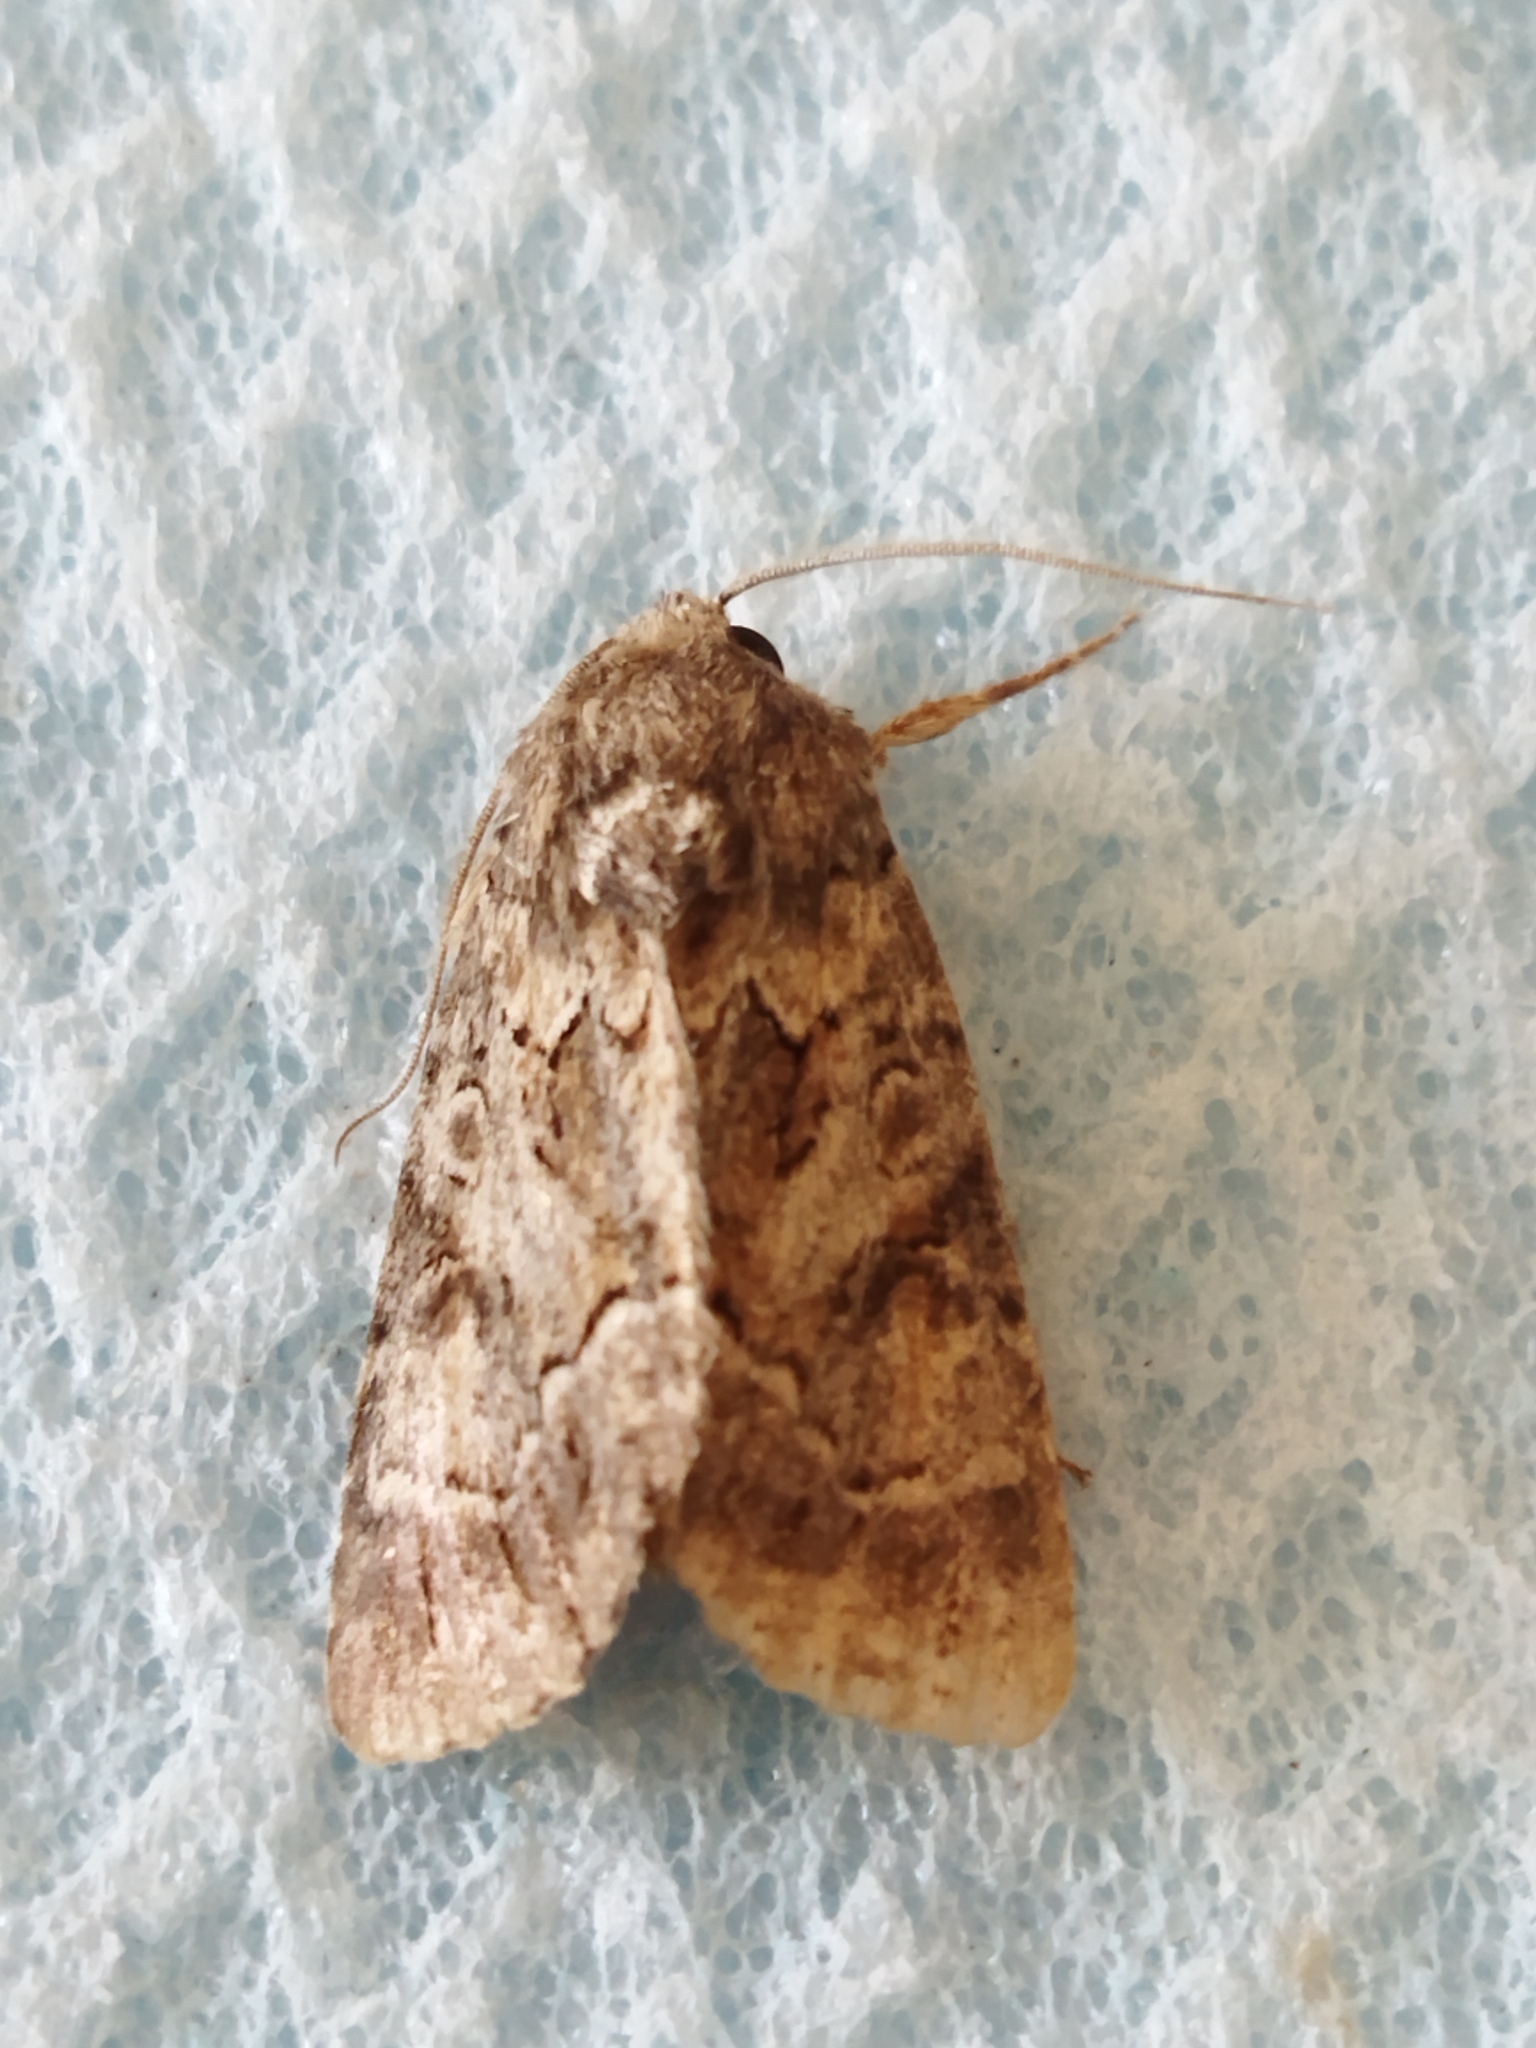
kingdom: Animalia
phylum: Arthropoda
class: Insecta
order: Lepidoptera
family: Noctuidae
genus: Thalpophila
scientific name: Thalpophila matura
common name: Straw underwing
